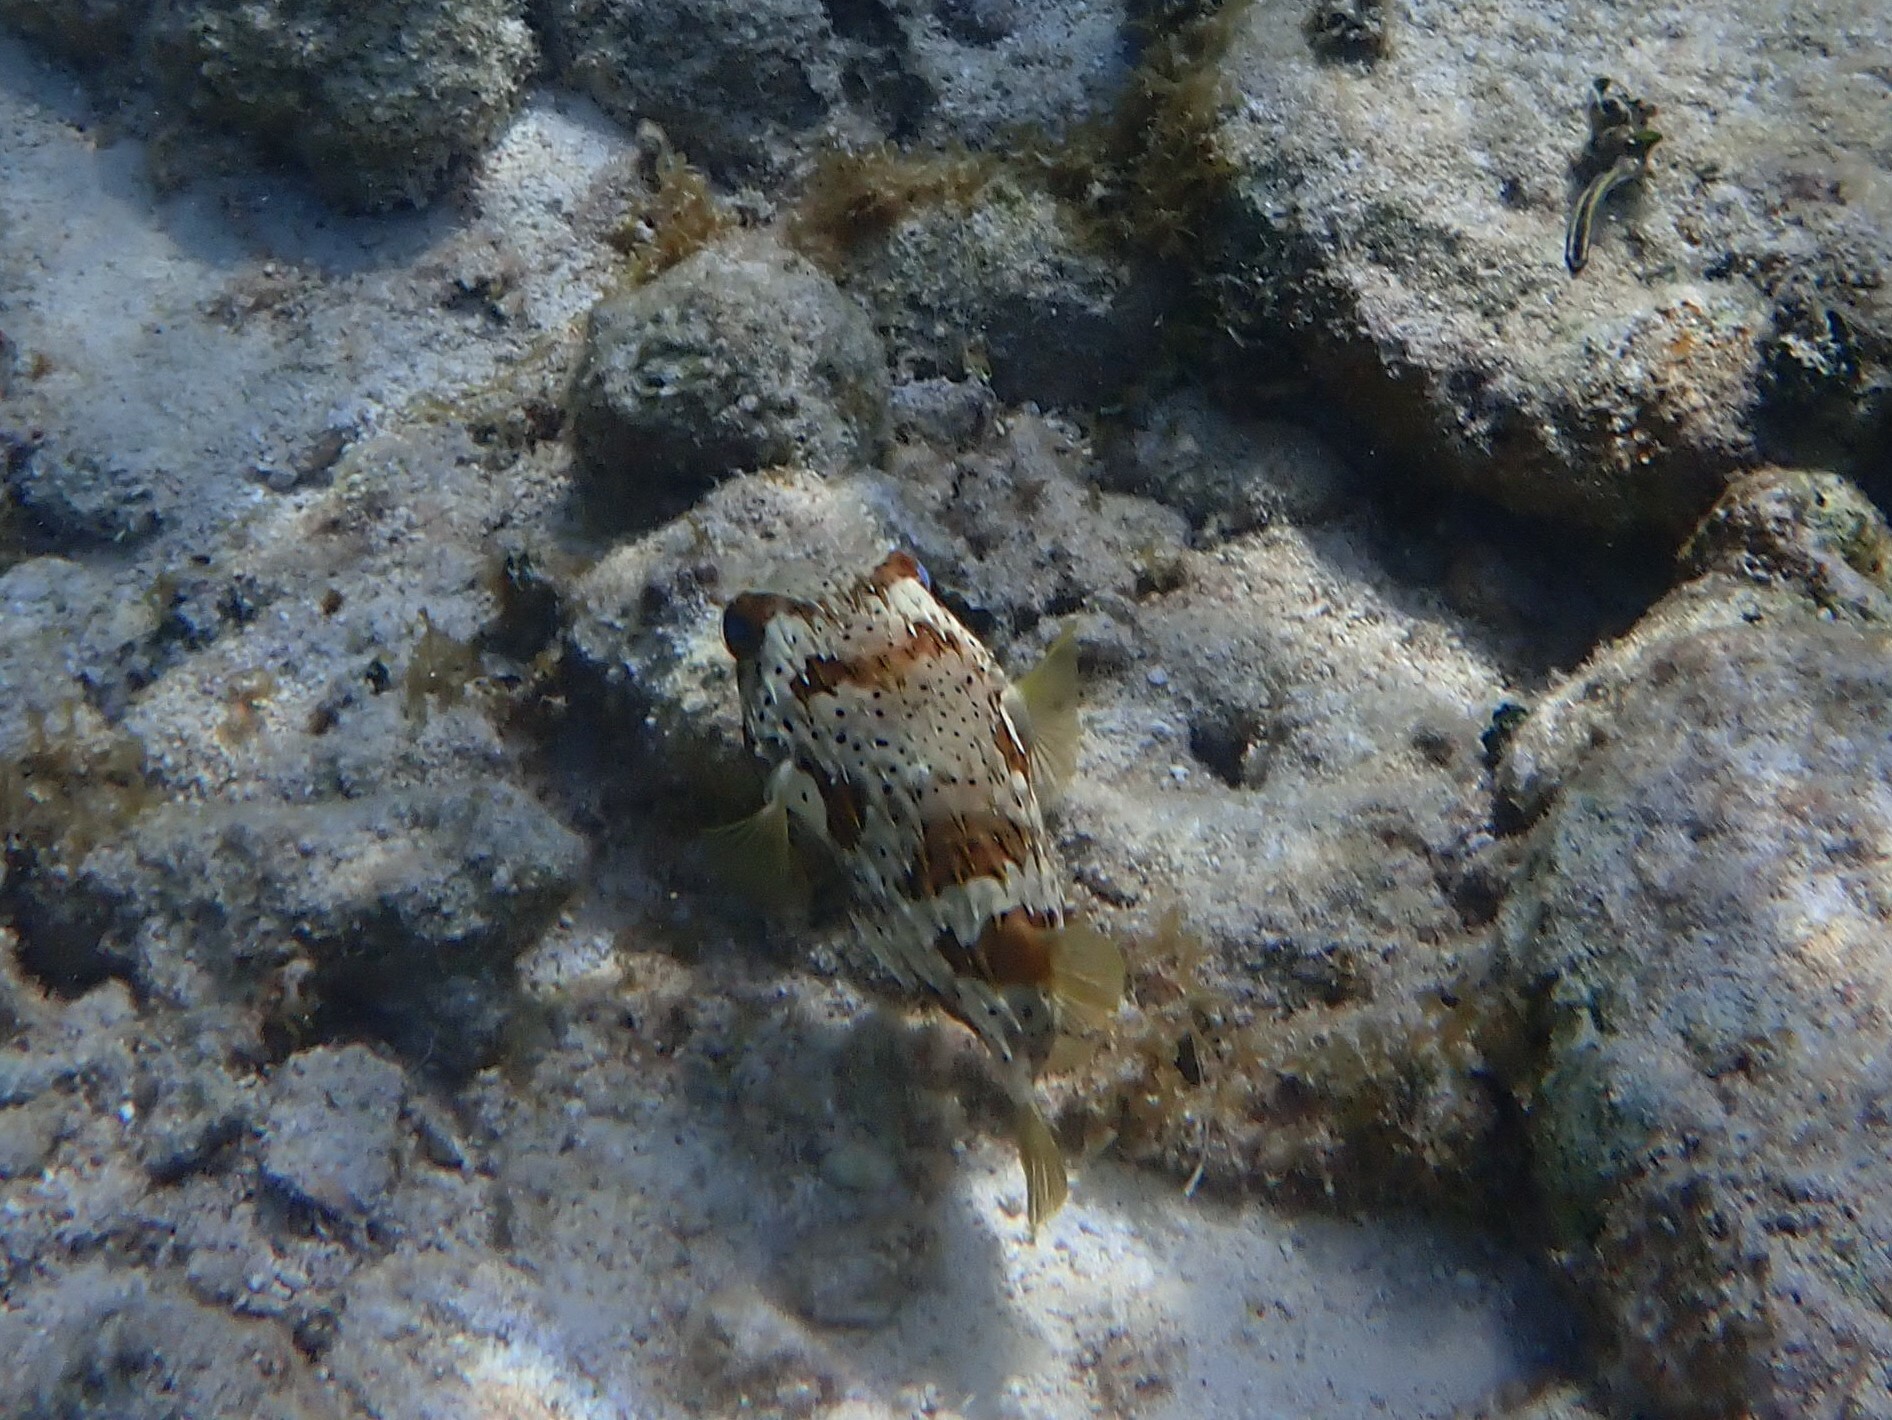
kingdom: Animalia
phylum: Chordata
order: Tetraodontiformes
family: Diodontidae
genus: Diodon
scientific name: Diodon holocanthus
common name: Balloonfish
